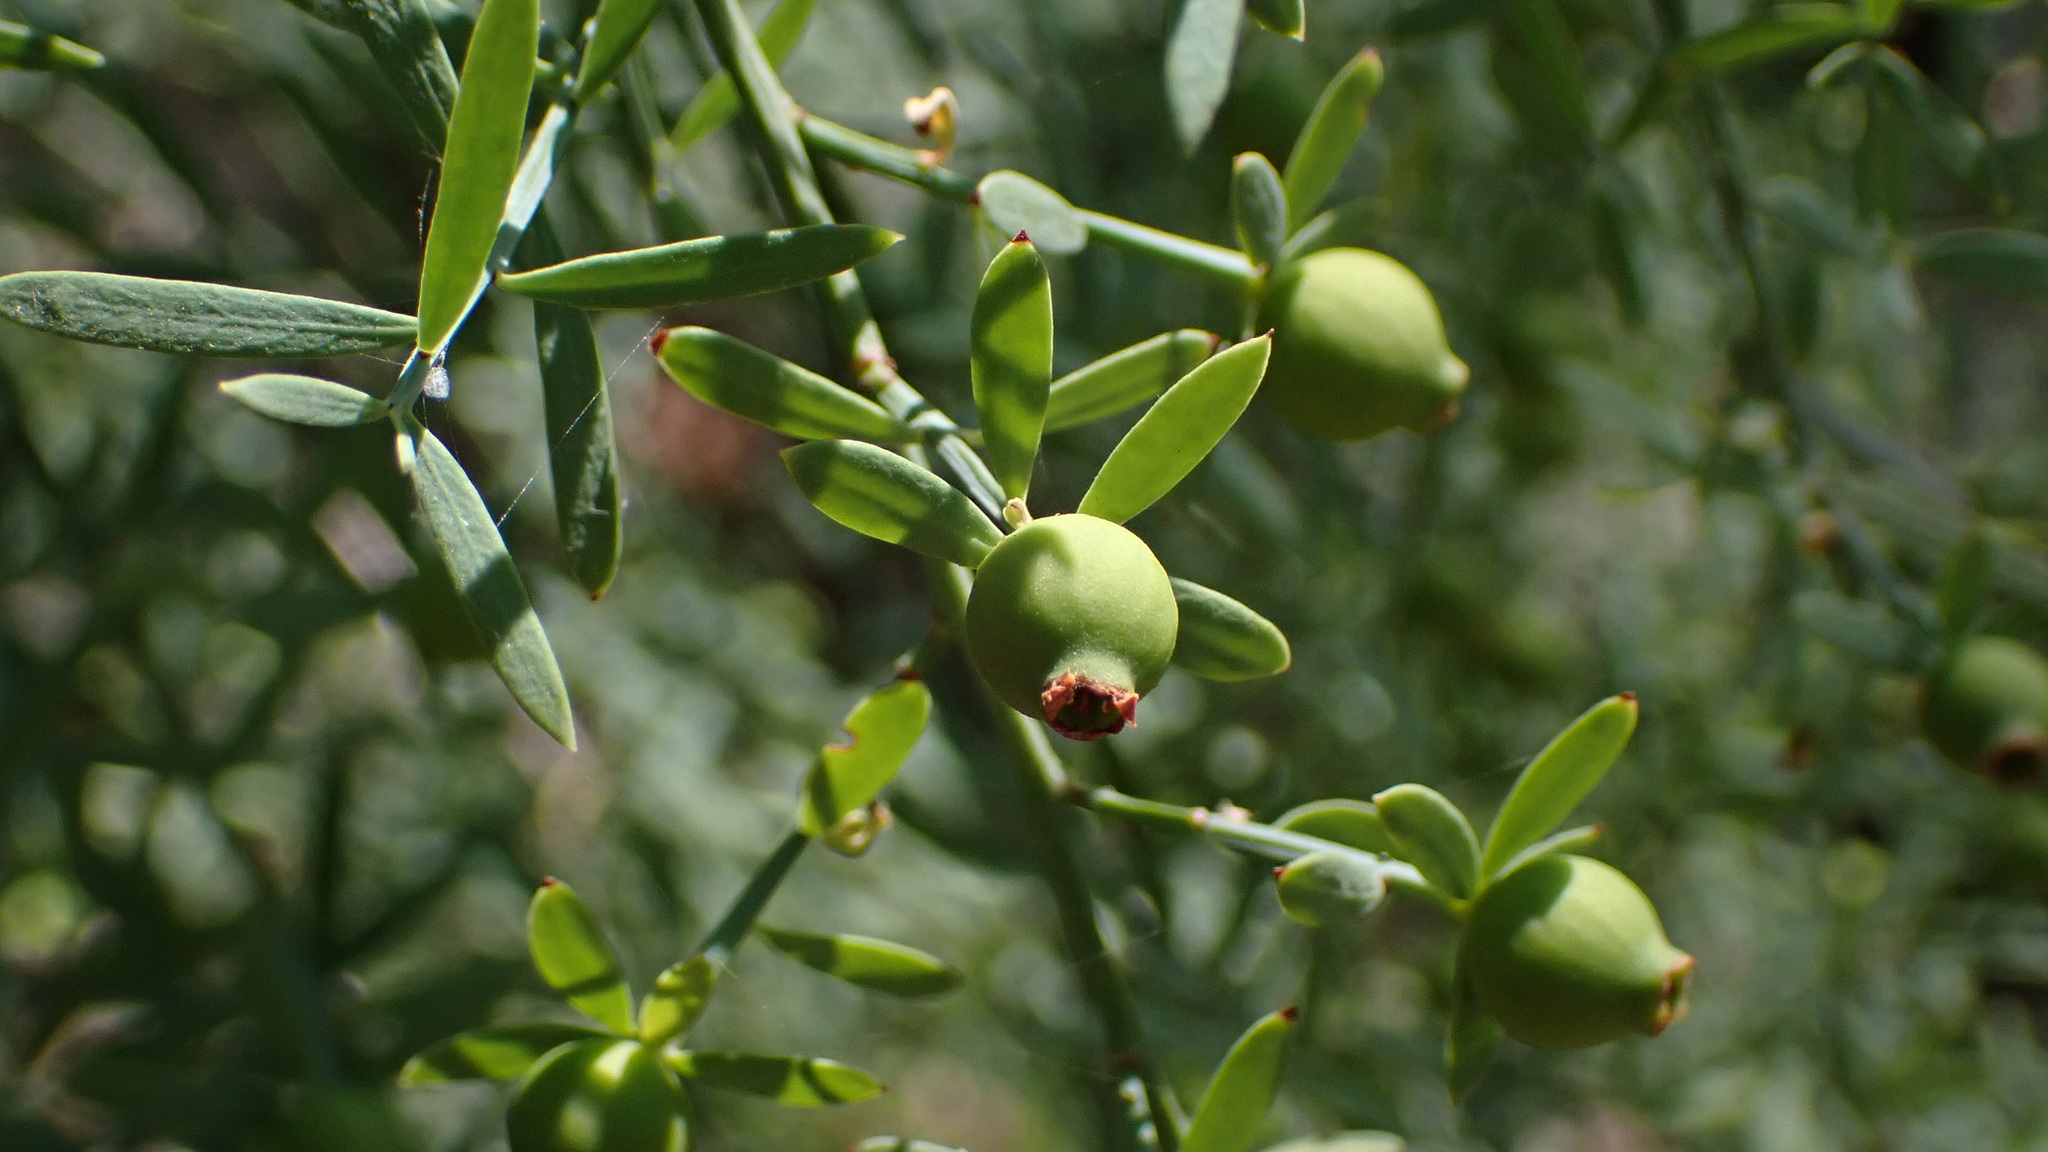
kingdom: Plantae
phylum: Tracheophyta
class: Magnoliopsida
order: Santalales
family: Santalaceae
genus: Osyris
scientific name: Osyris alba
